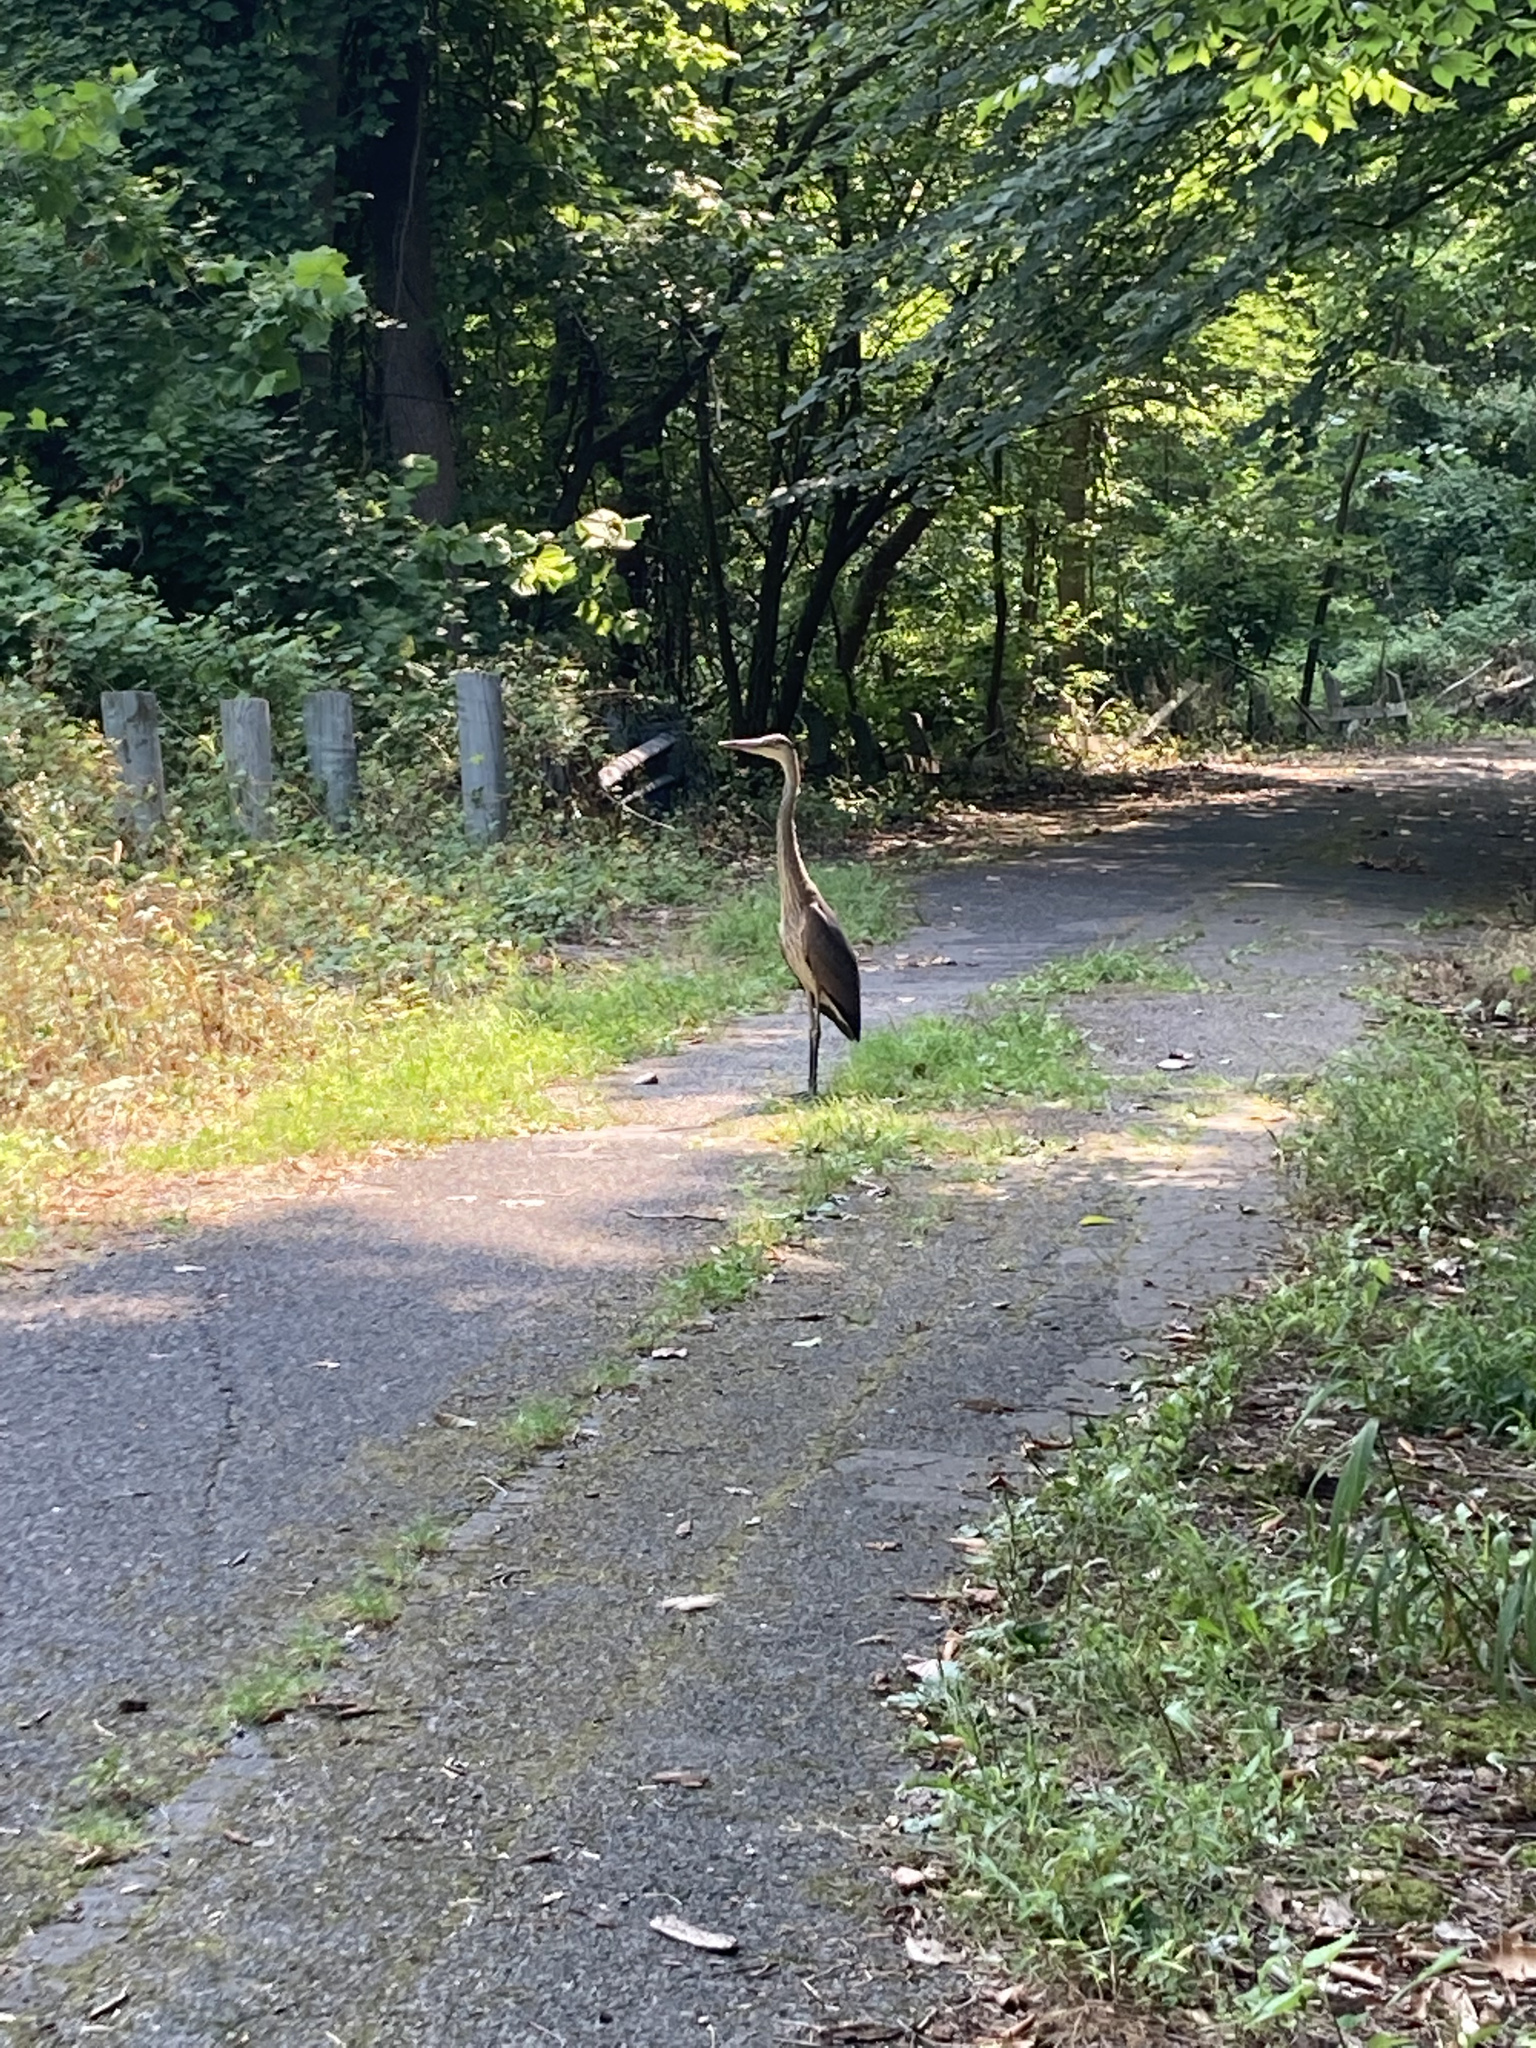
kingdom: Animalia
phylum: Chordata
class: Aves
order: Pelecaniformes
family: Ardeidae
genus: Ardea
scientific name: Ardea herodias
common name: Great blue heron
